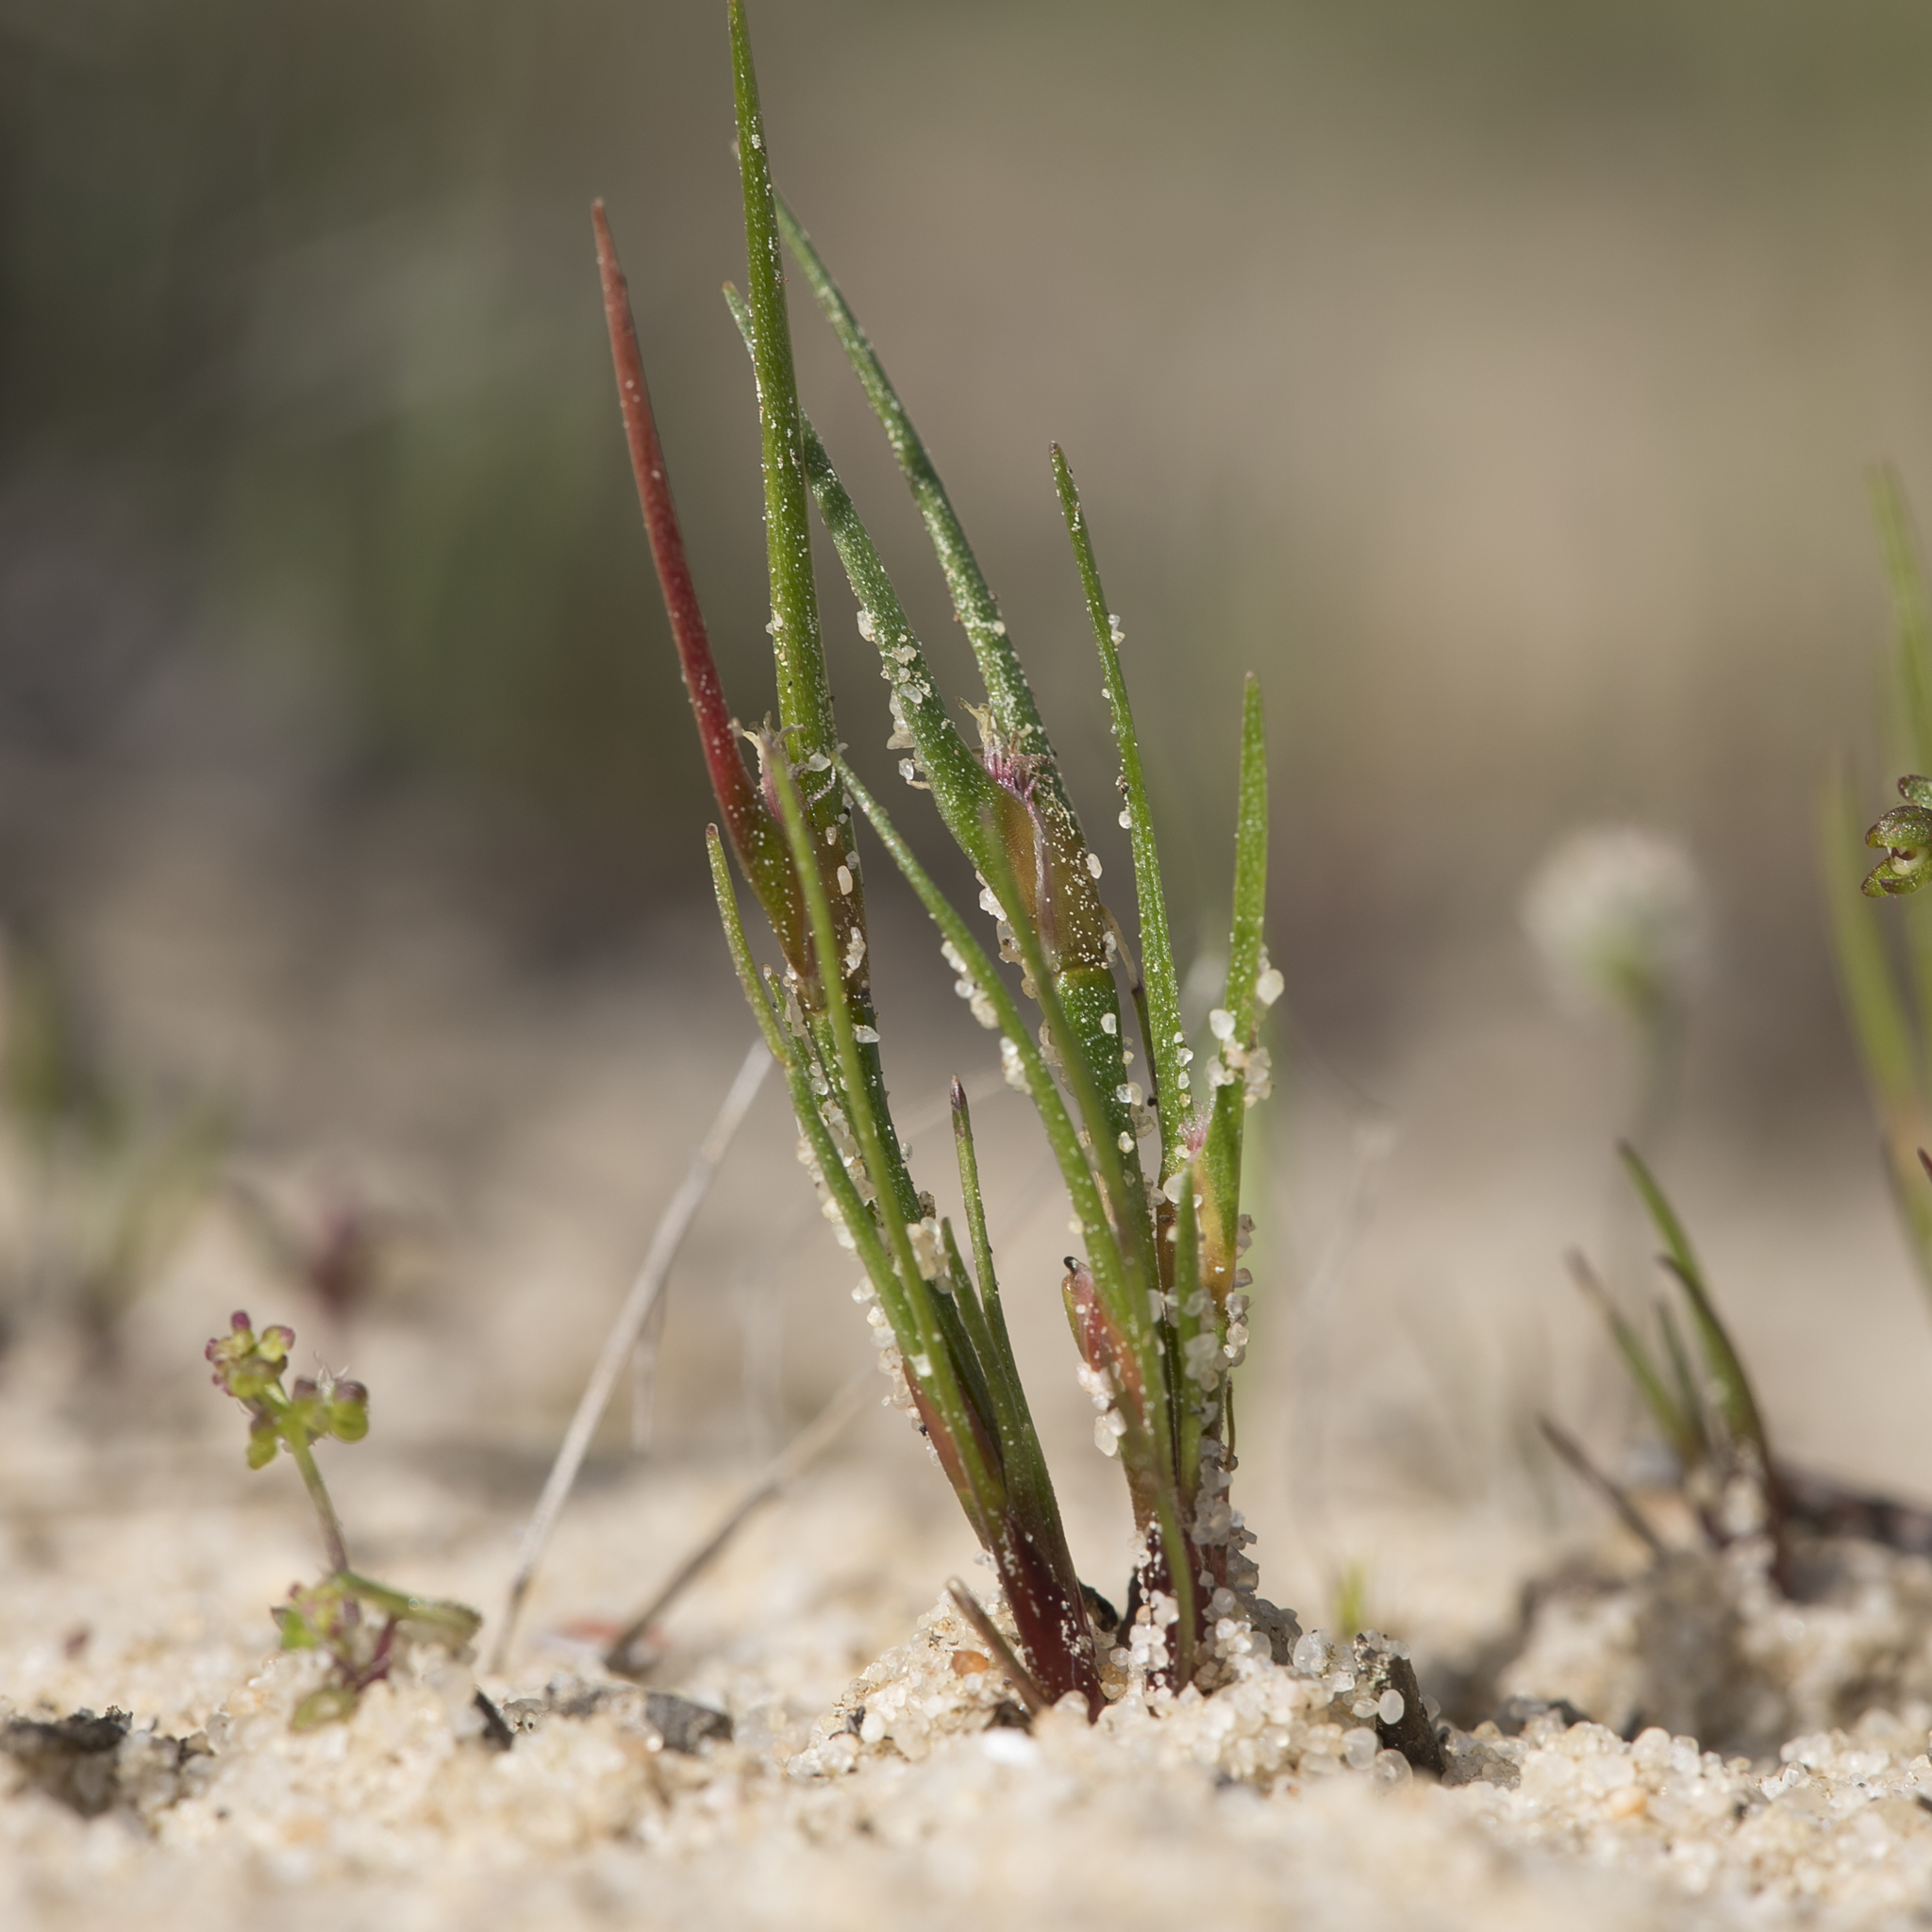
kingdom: Plantae
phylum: Tracheophyta
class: Liliopsida
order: Poales
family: Restionaceae
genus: Centrolepis
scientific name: Centrolepis aristata
